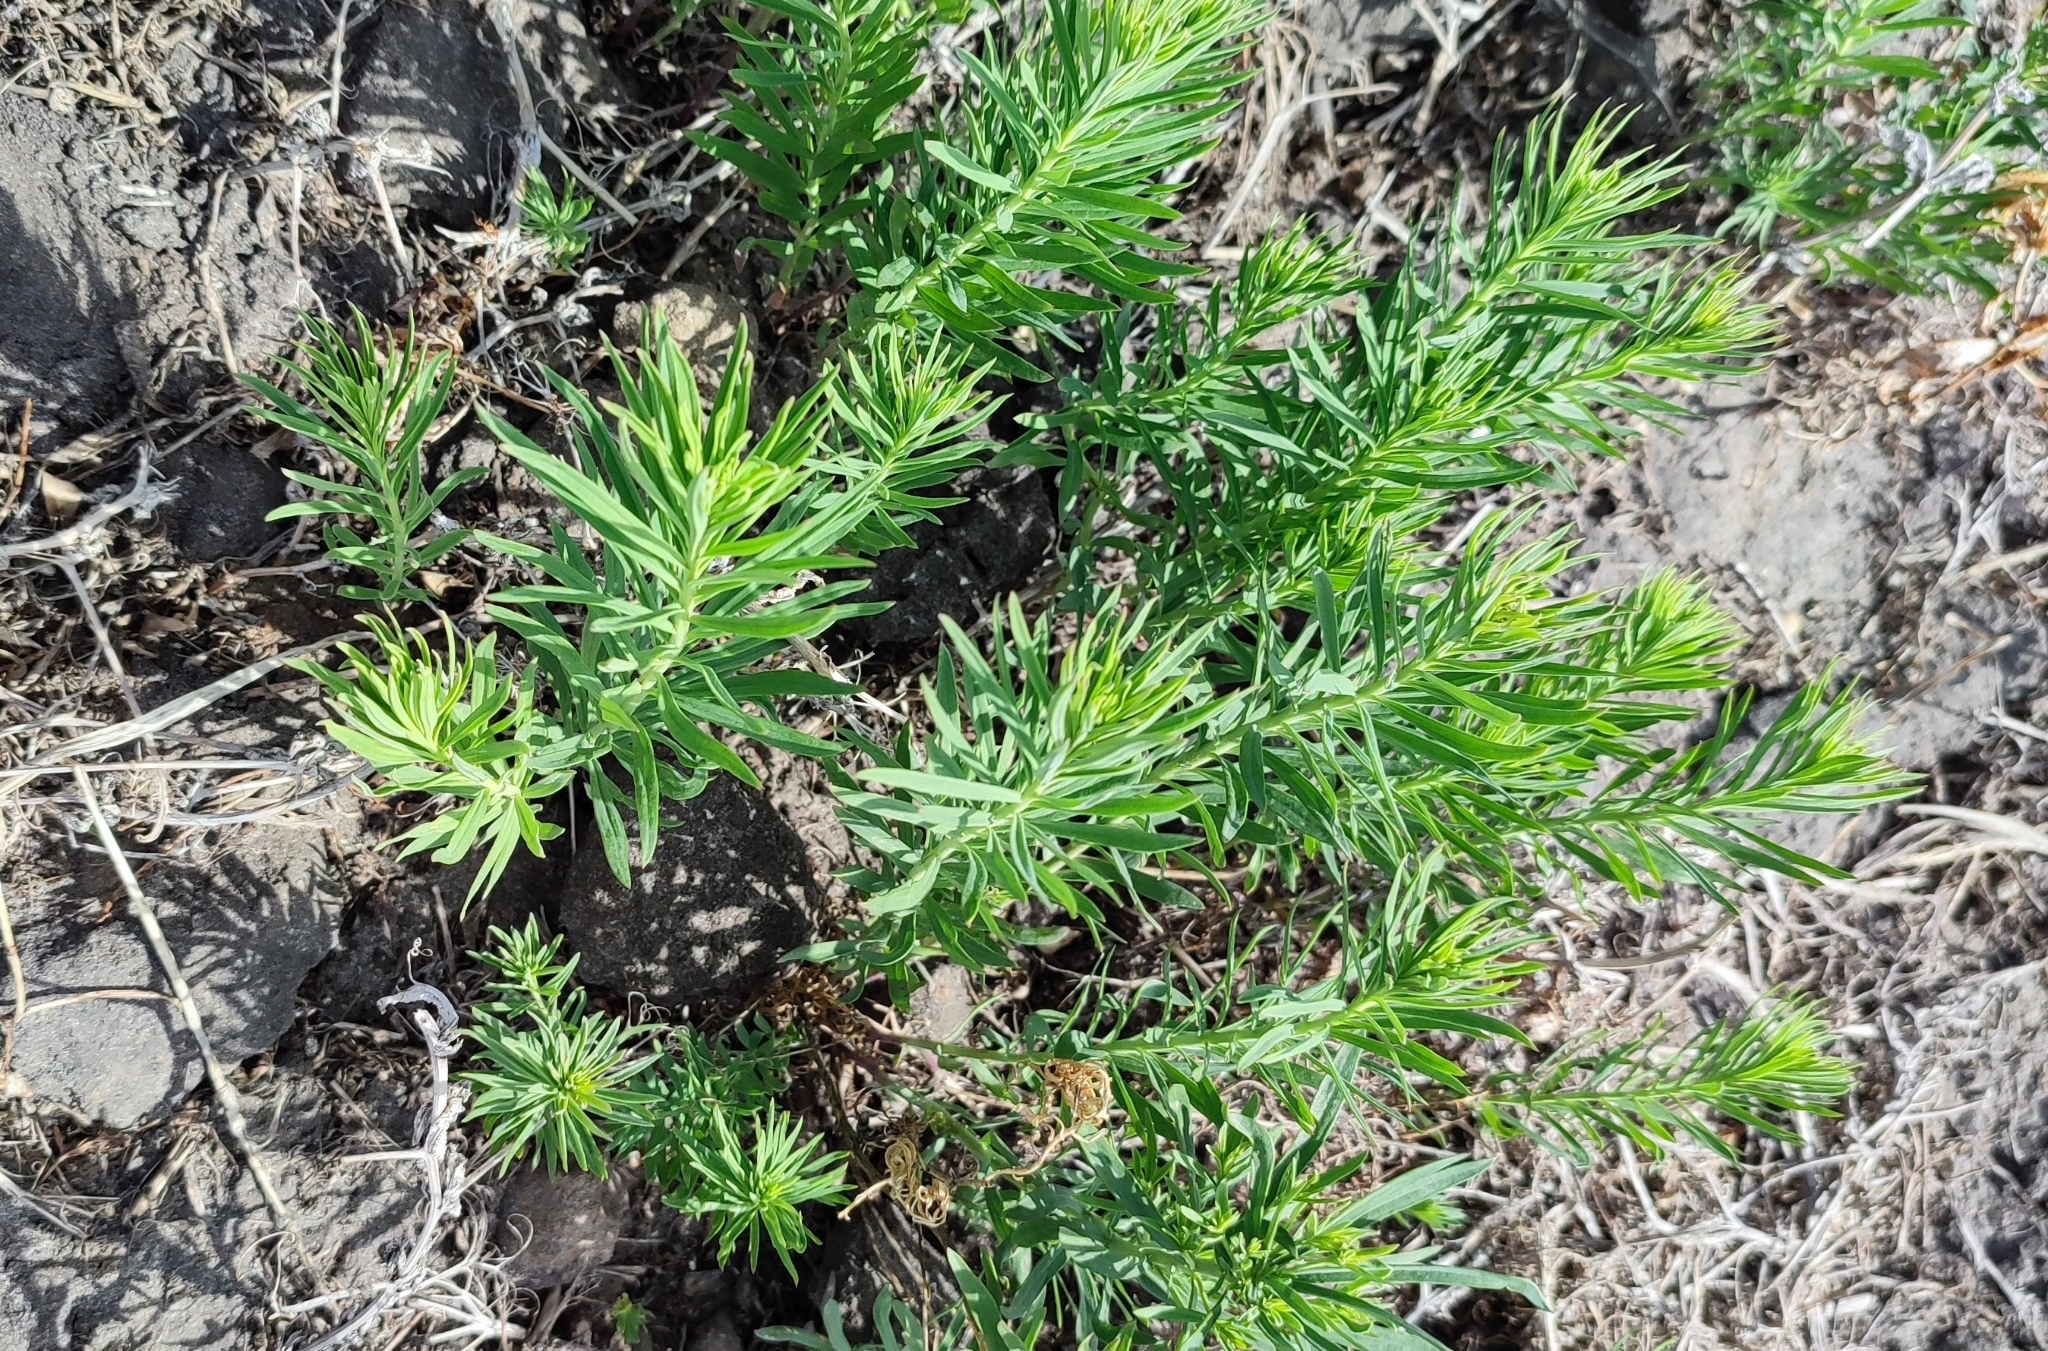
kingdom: Plantae
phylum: Tracheophyta
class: Magnoliopsida
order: Lamiales
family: Plantaginaceae
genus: Linaria
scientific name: Linaria vulgaris
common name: Butter and eggs
